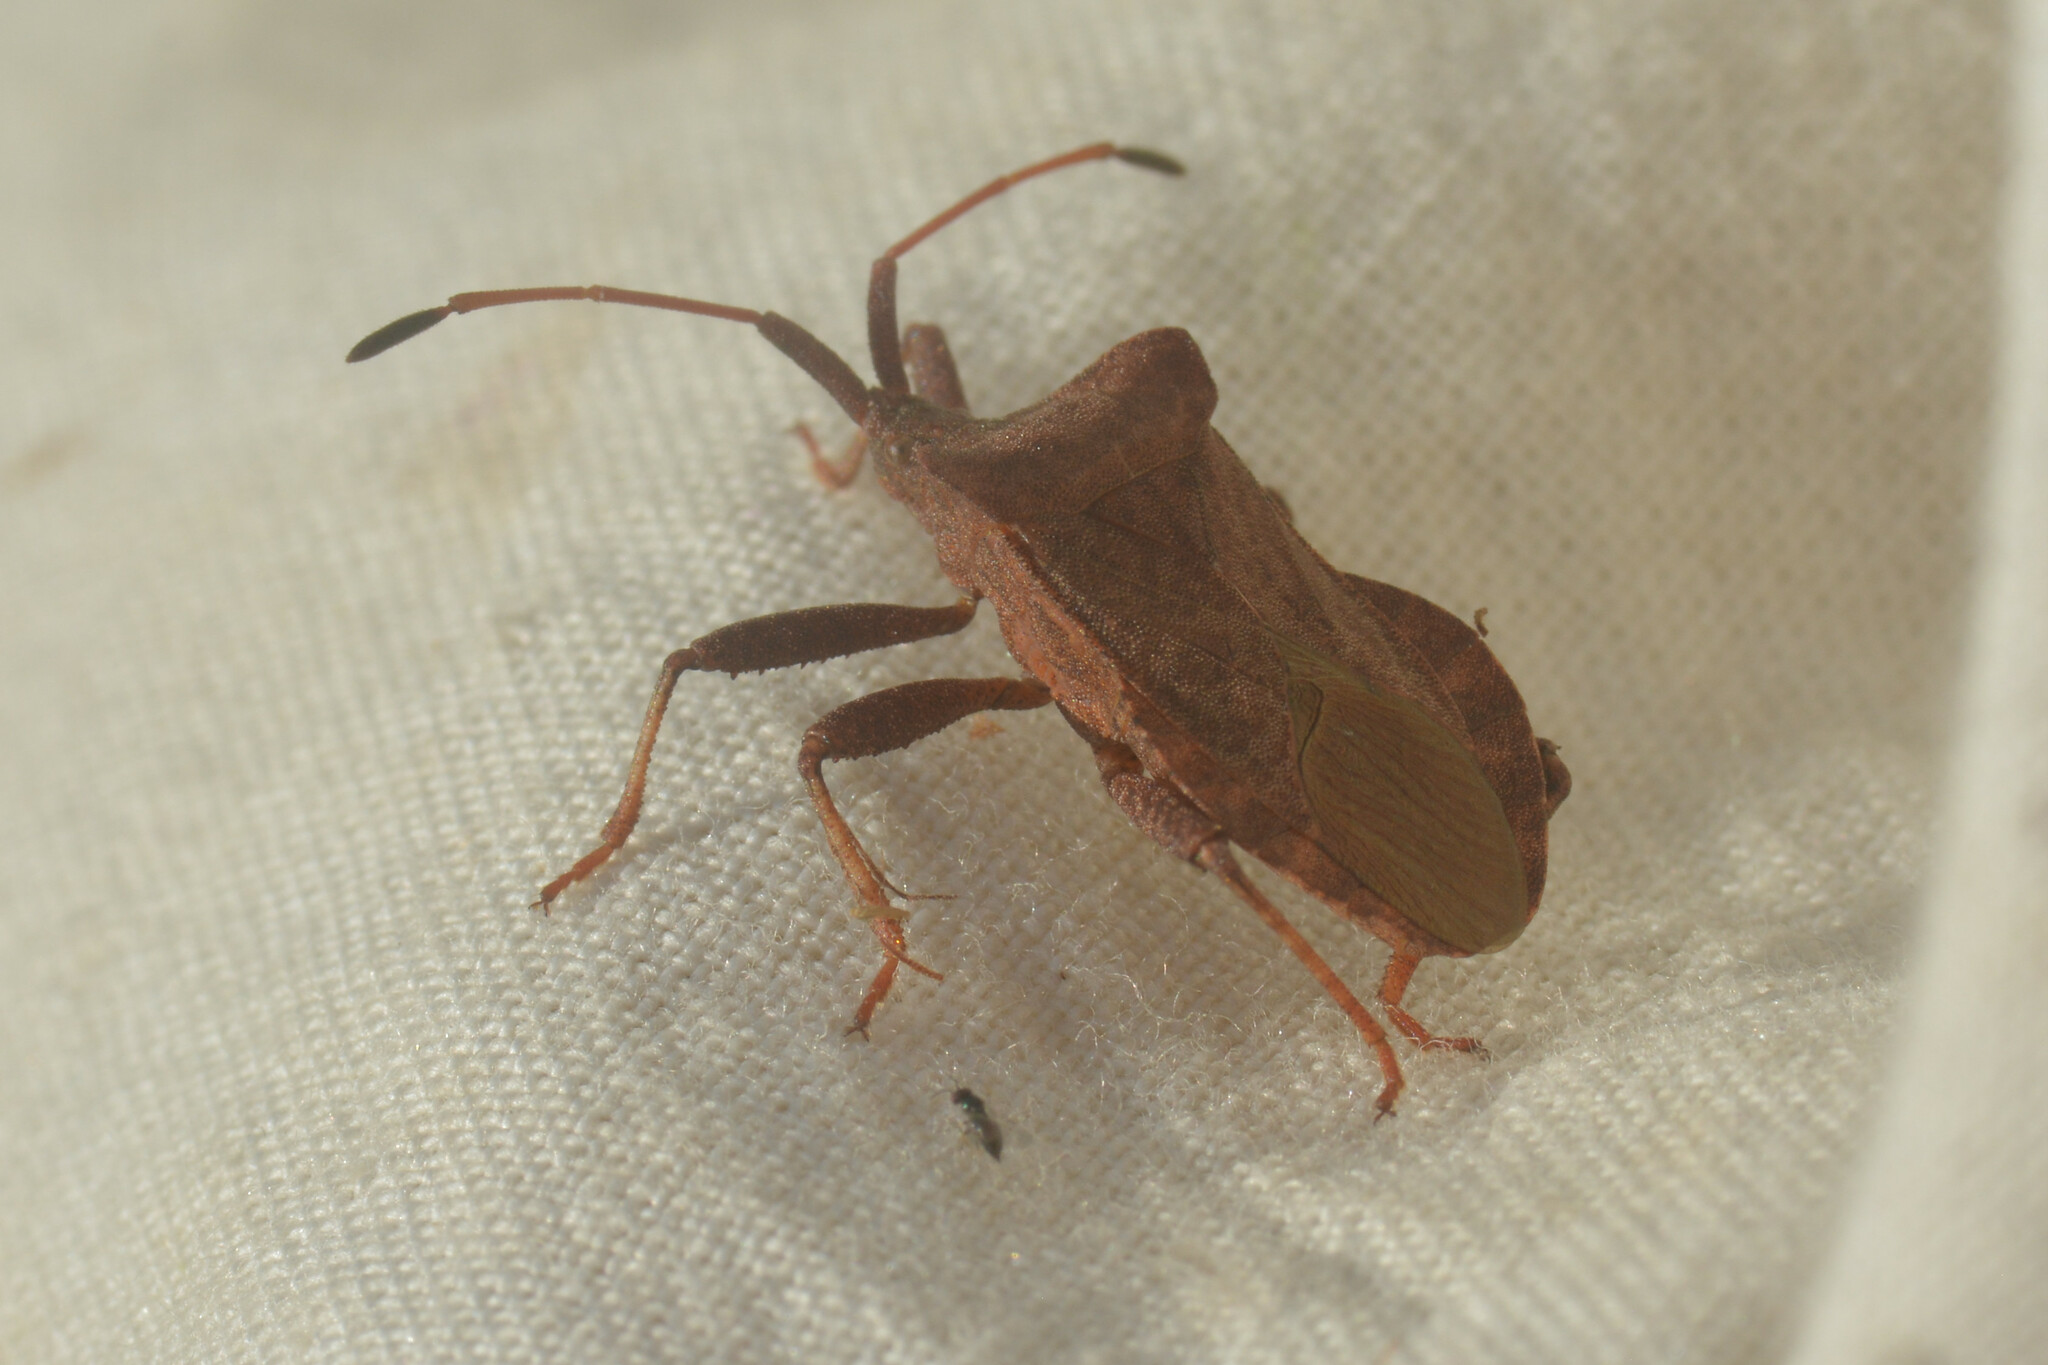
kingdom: Animalia
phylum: Arthropoda
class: Insecta
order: Hemiptera
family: Coreidae
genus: Coreus
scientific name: Coreus marginatus
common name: Dock bug
